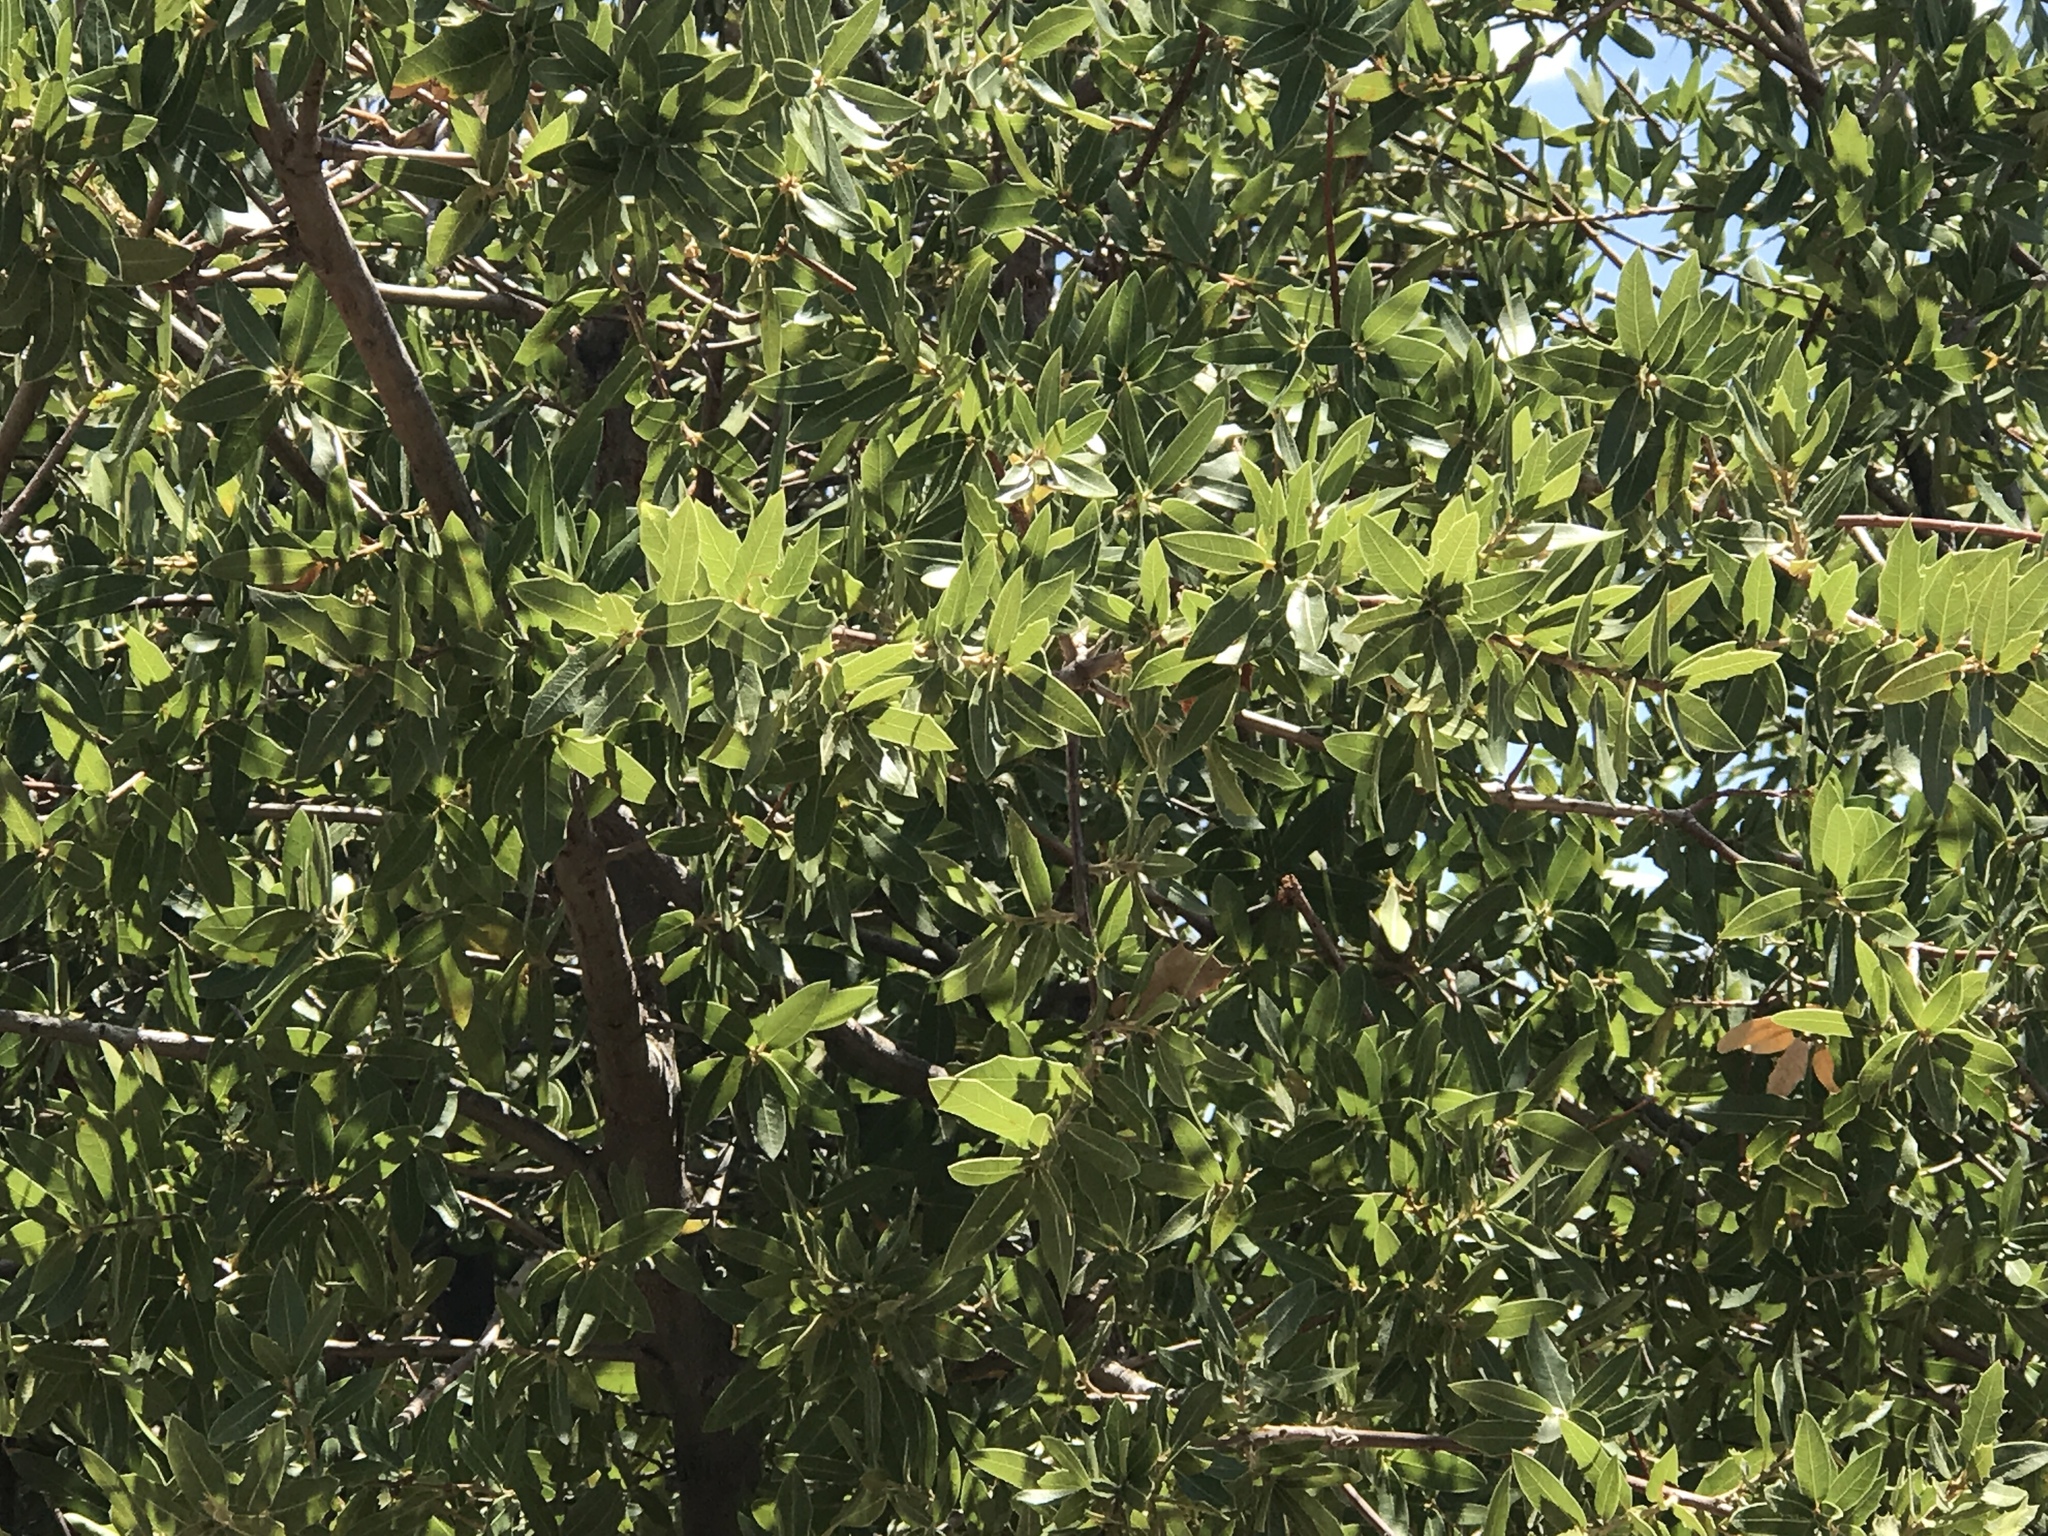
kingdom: Plantae
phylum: Tracheophyta
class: Magnoliopsida
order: Fagales
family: Fagaceae
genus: Quercus
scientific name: Quercus emoryi
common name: Emory oak
